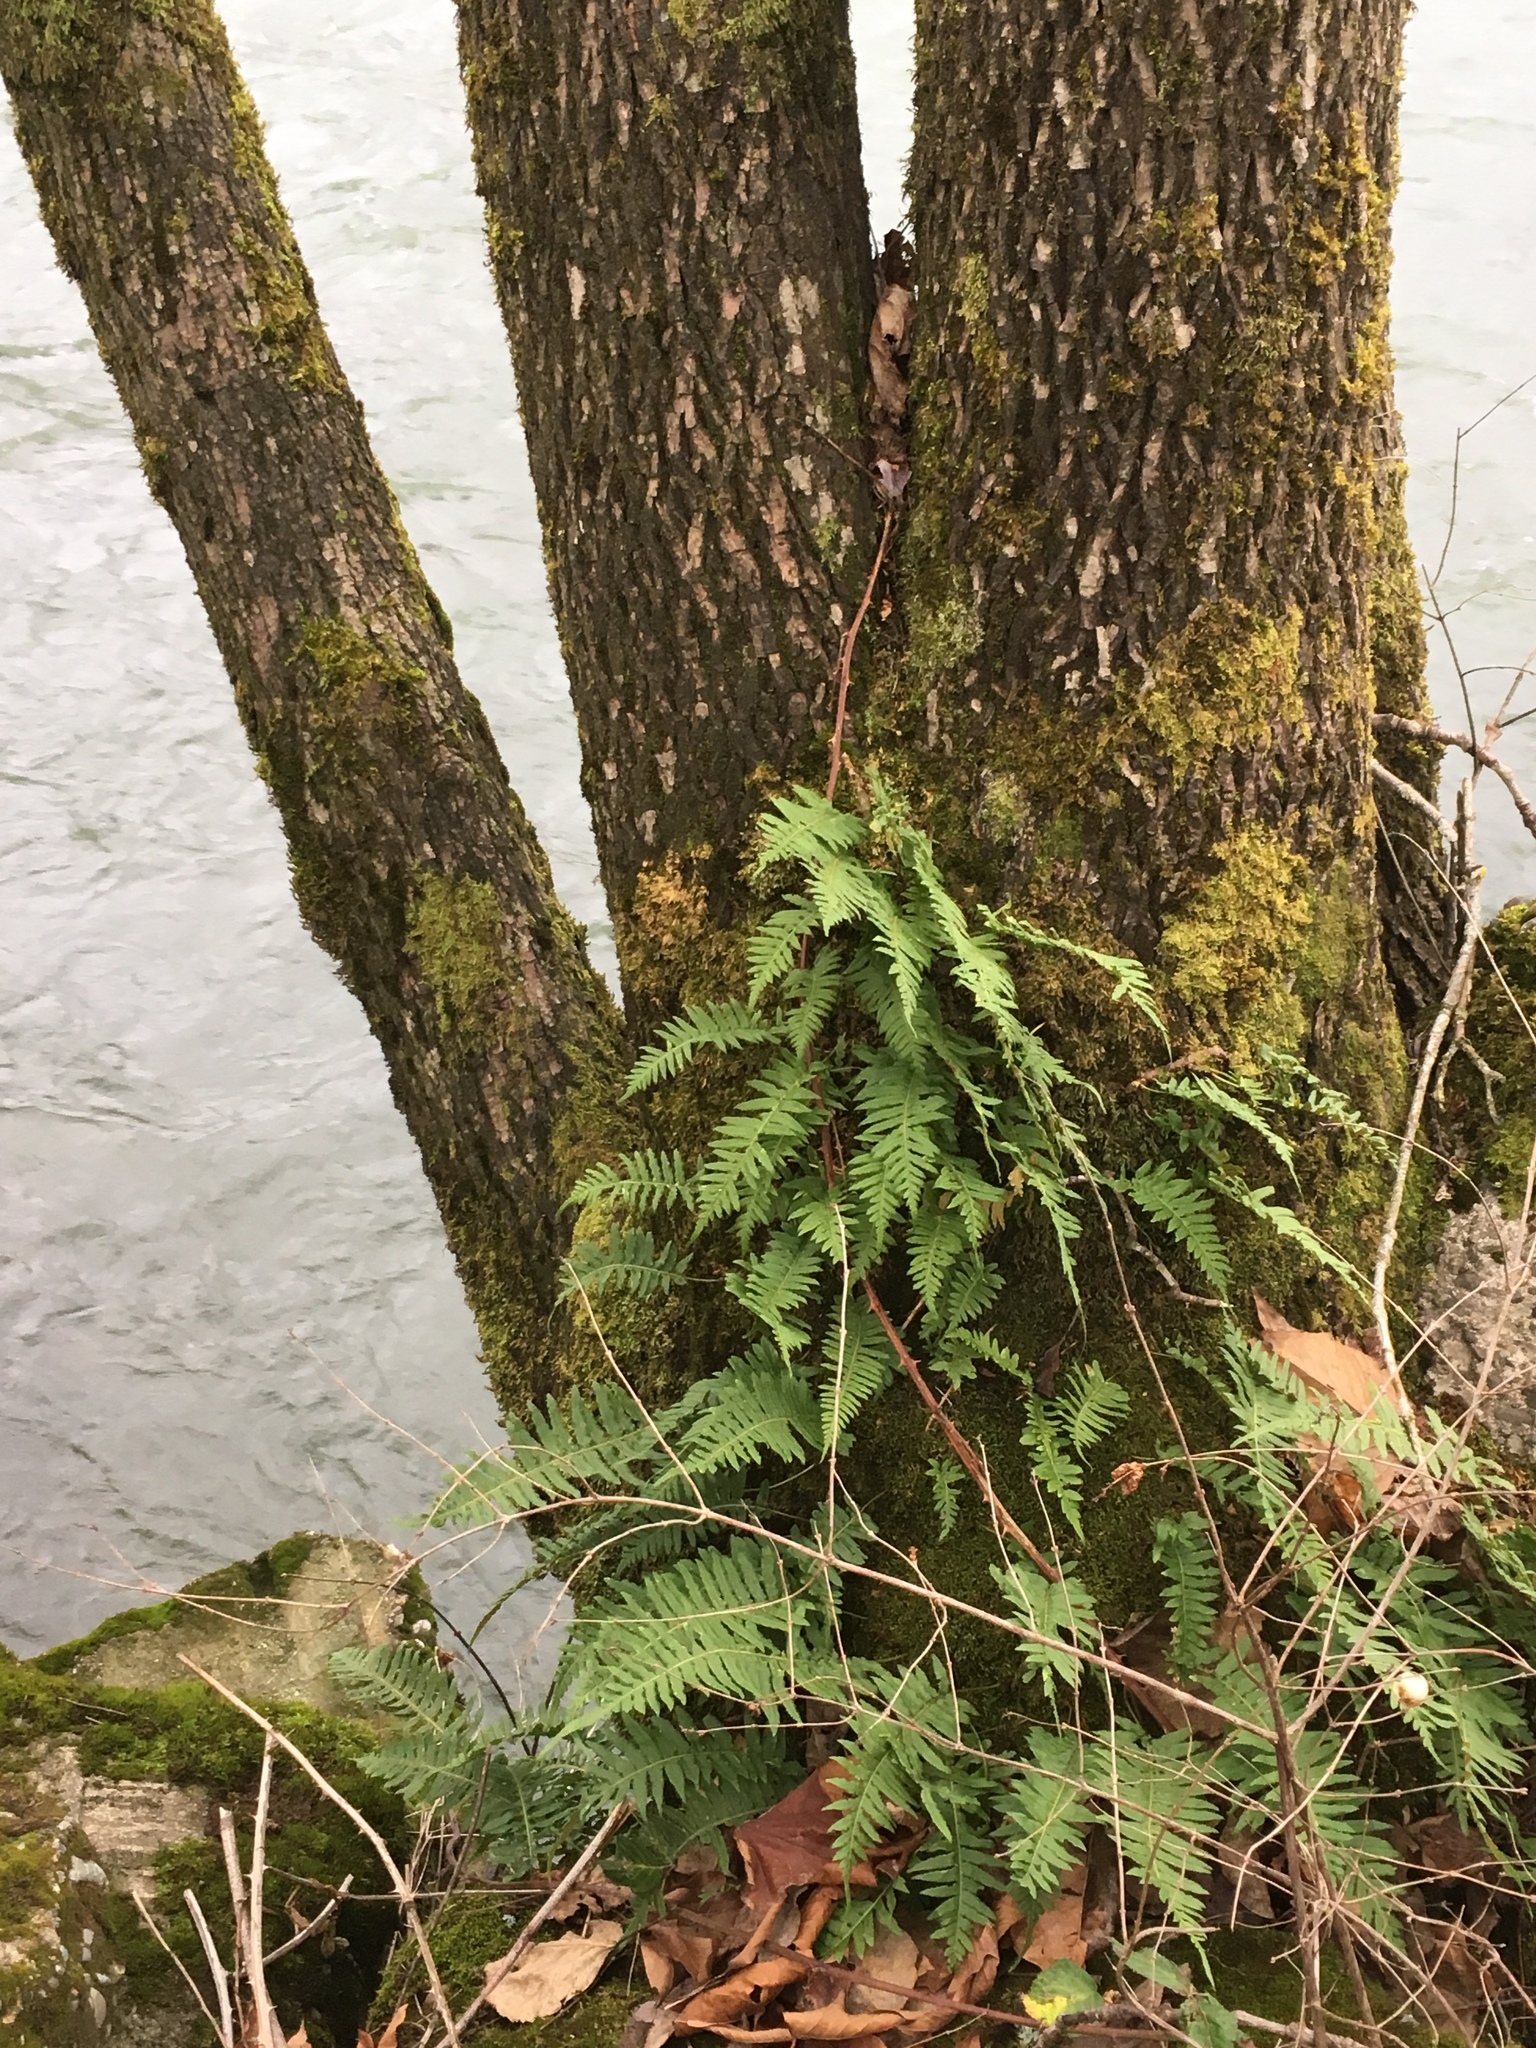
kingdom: Plantae
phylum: Tracheophyta
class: Polypodiopsida
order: Polypodiales
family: Polypodiaceae
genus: Polypodium
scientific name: Polypodium glycyrrhiza
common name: Licorice fern
